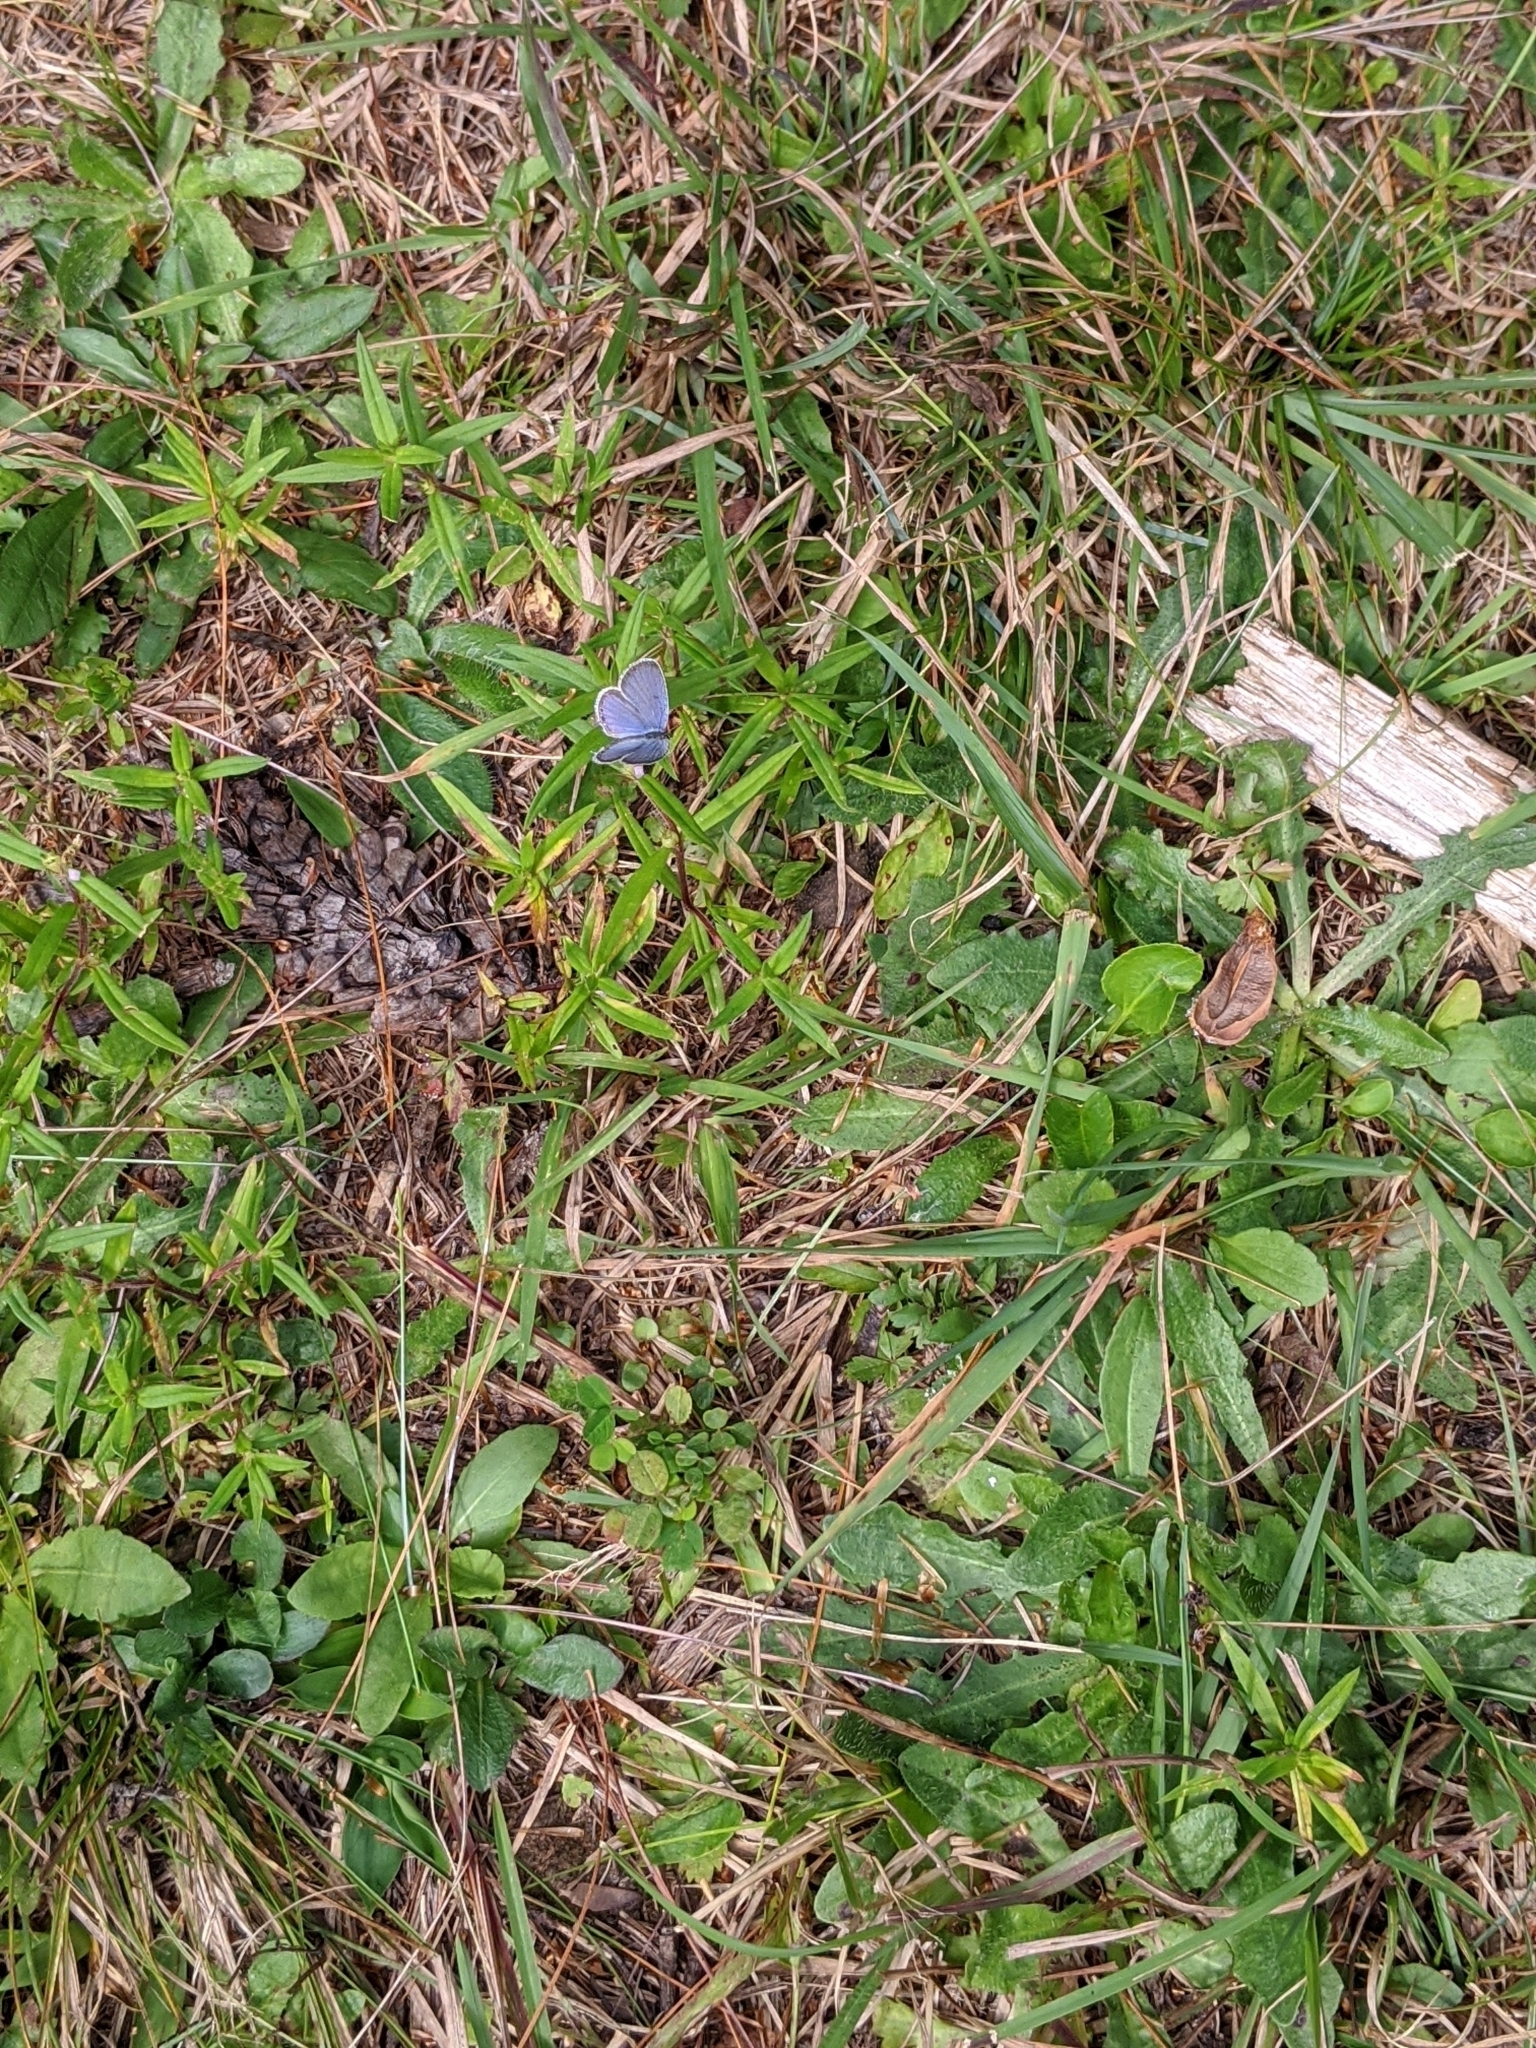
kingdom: Animalia
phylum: Arthropoda
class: Insecta
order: Lepidoptera
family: Lycaenidae
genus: Elkalyce
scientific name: Elkalyce comyntas
